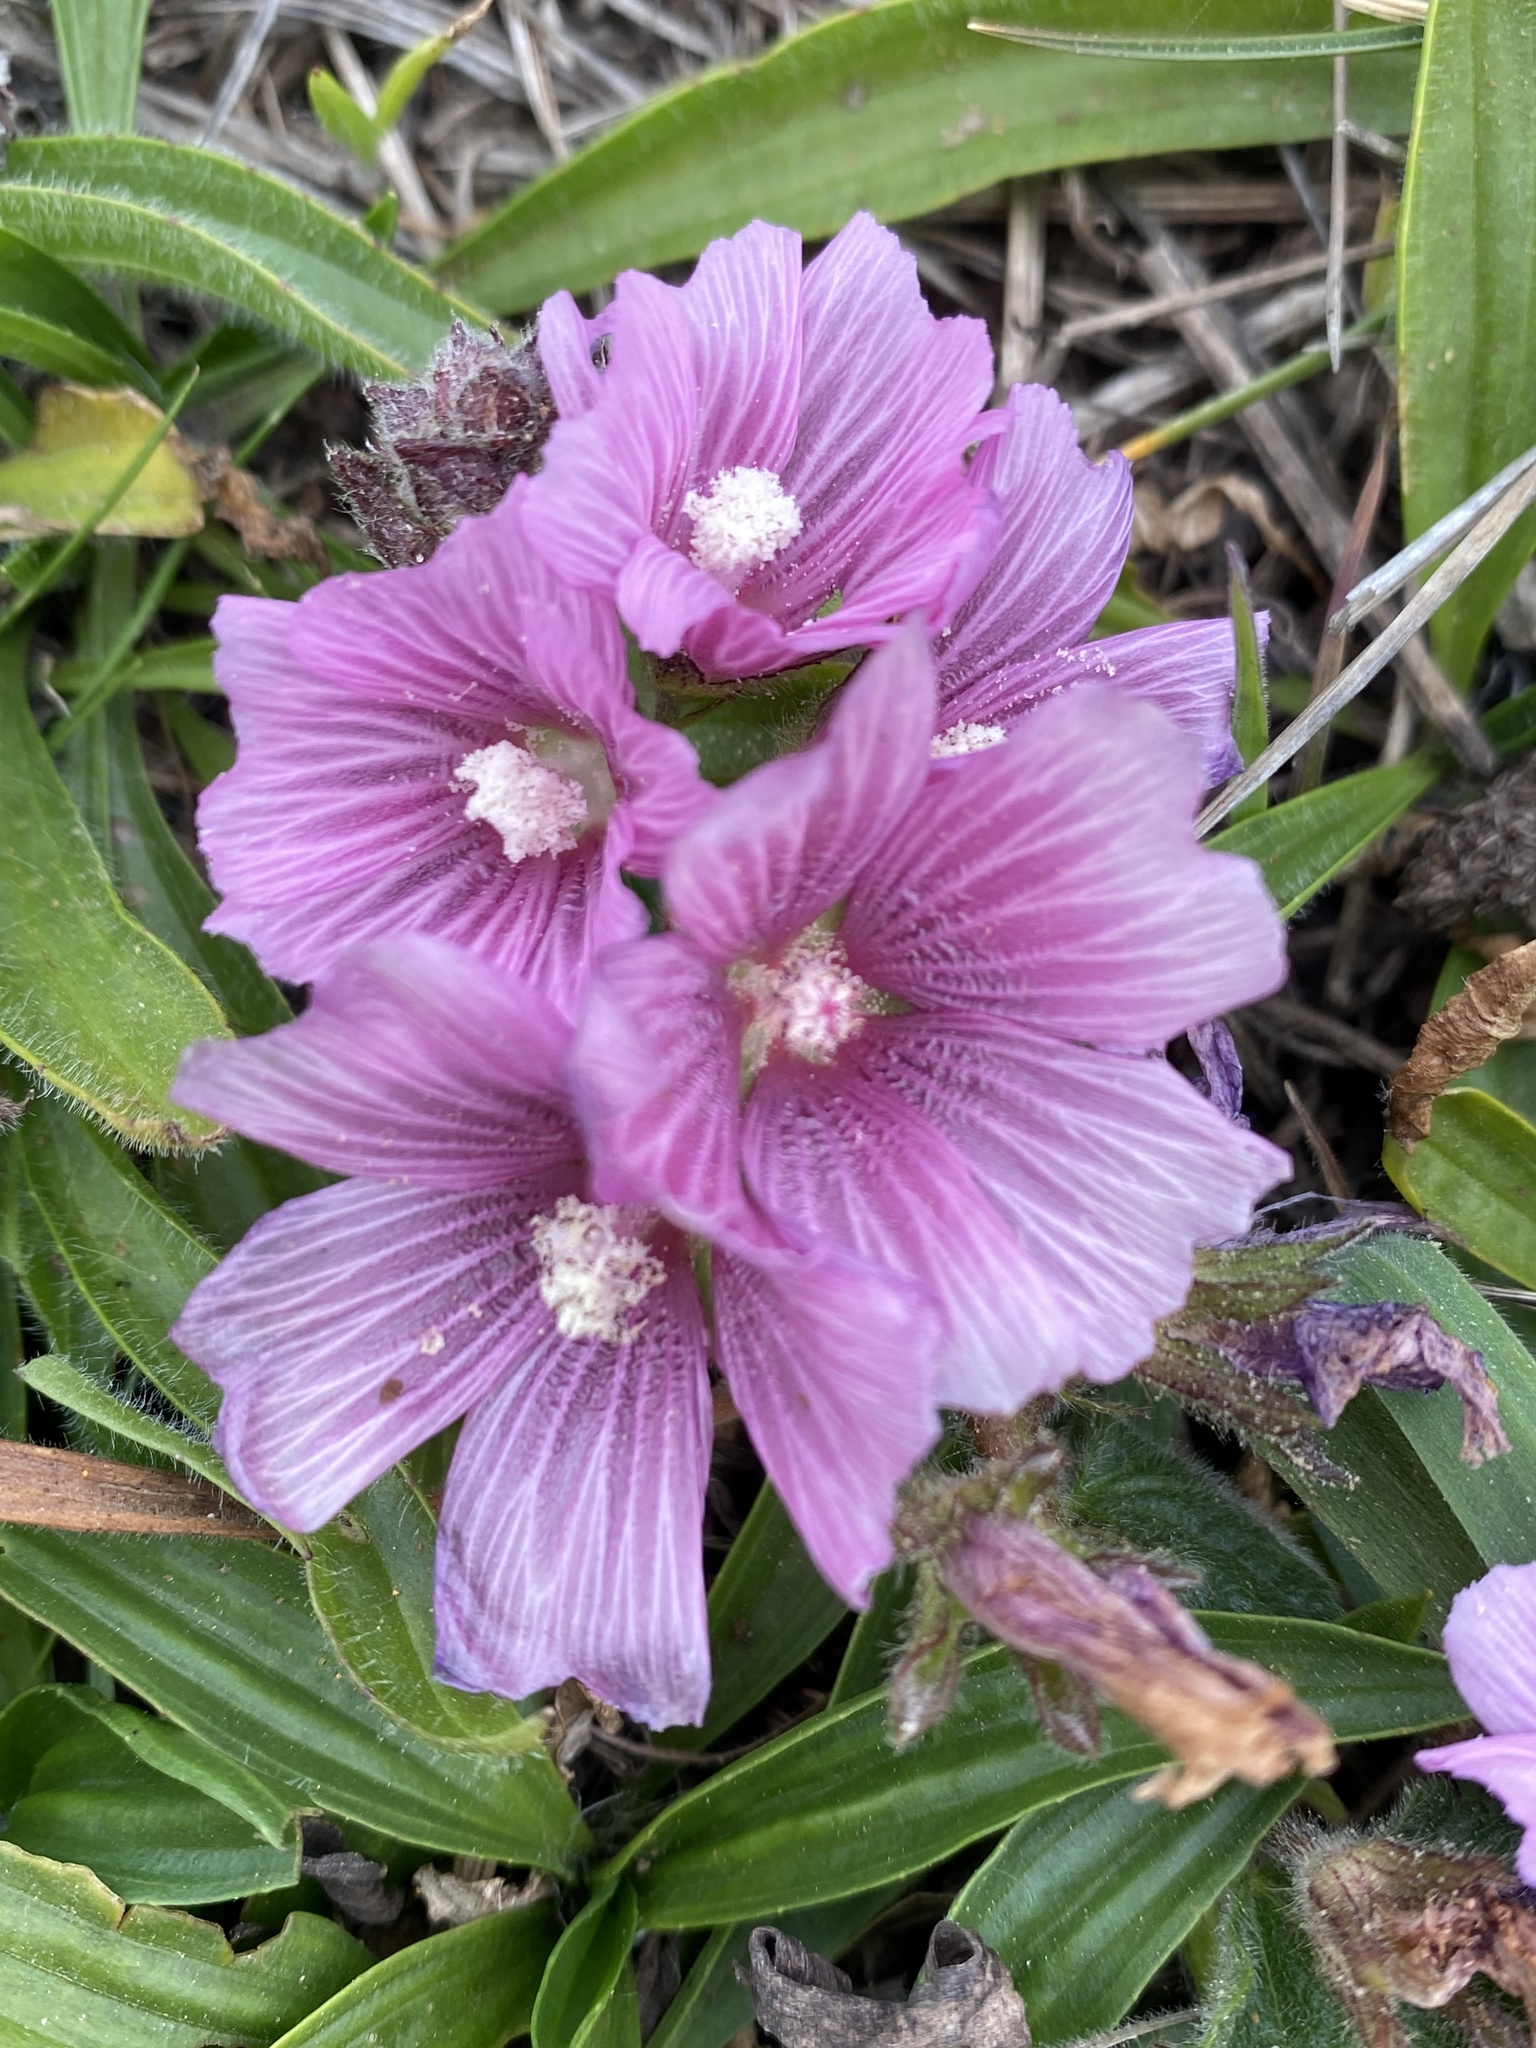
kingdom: Plantae
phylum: Tracheophyta
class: Magnoliopsida
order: Malvales
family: Malvaceae
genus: Sidalcea
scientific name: Sidalcea malviflora
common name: Greek mallow
